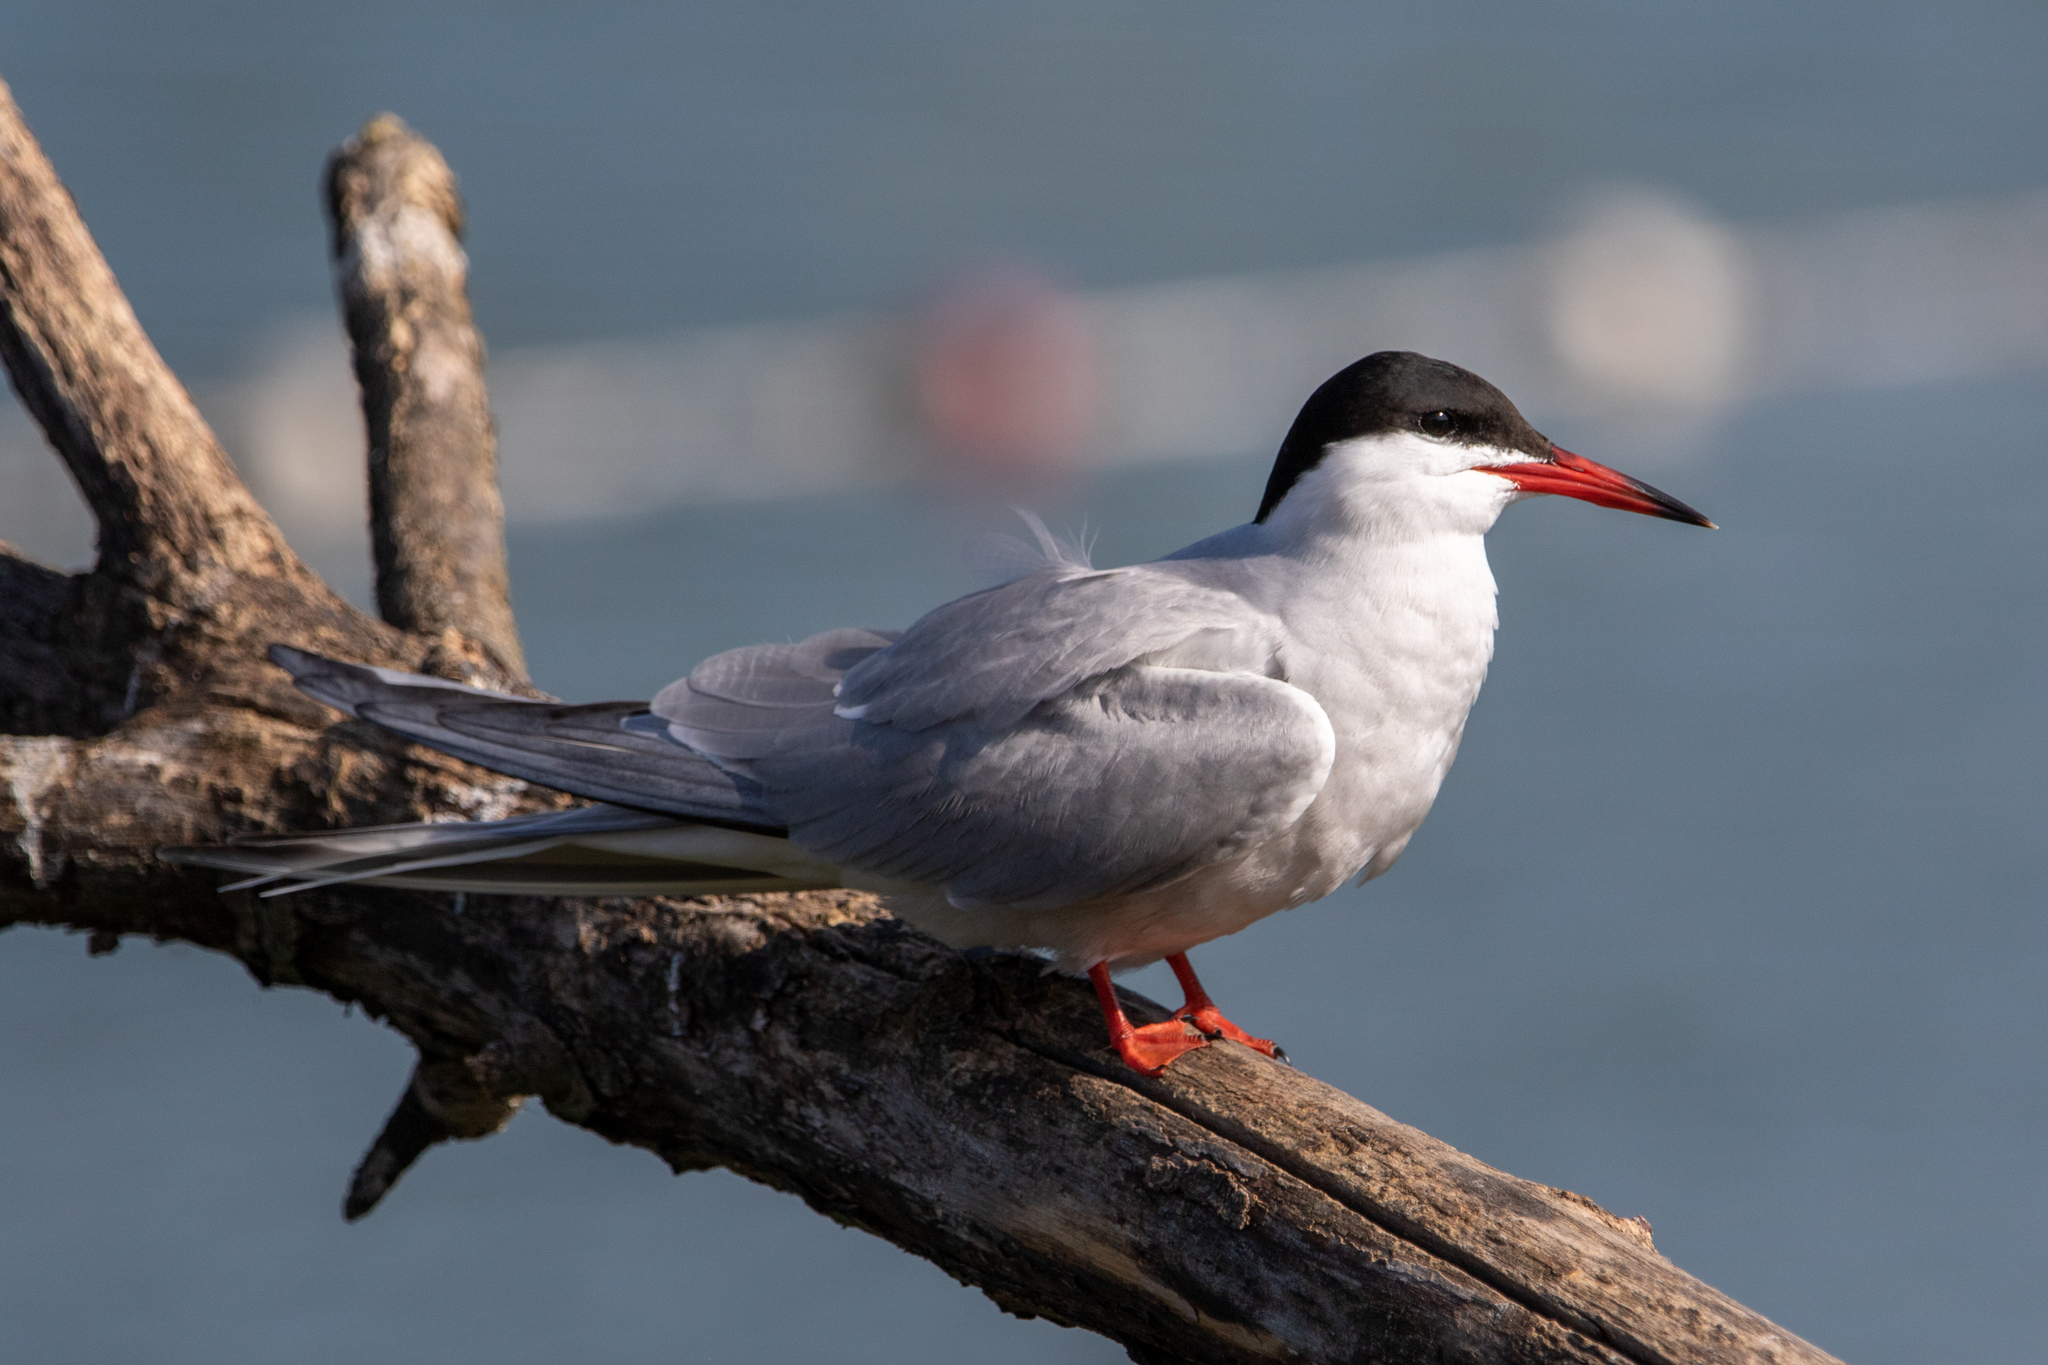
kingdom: Animalia
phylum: Chordata
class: Aves
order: Charadriiformes
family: Laridae
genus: Sterna
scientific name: Sterna hirundo
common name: Common tern
